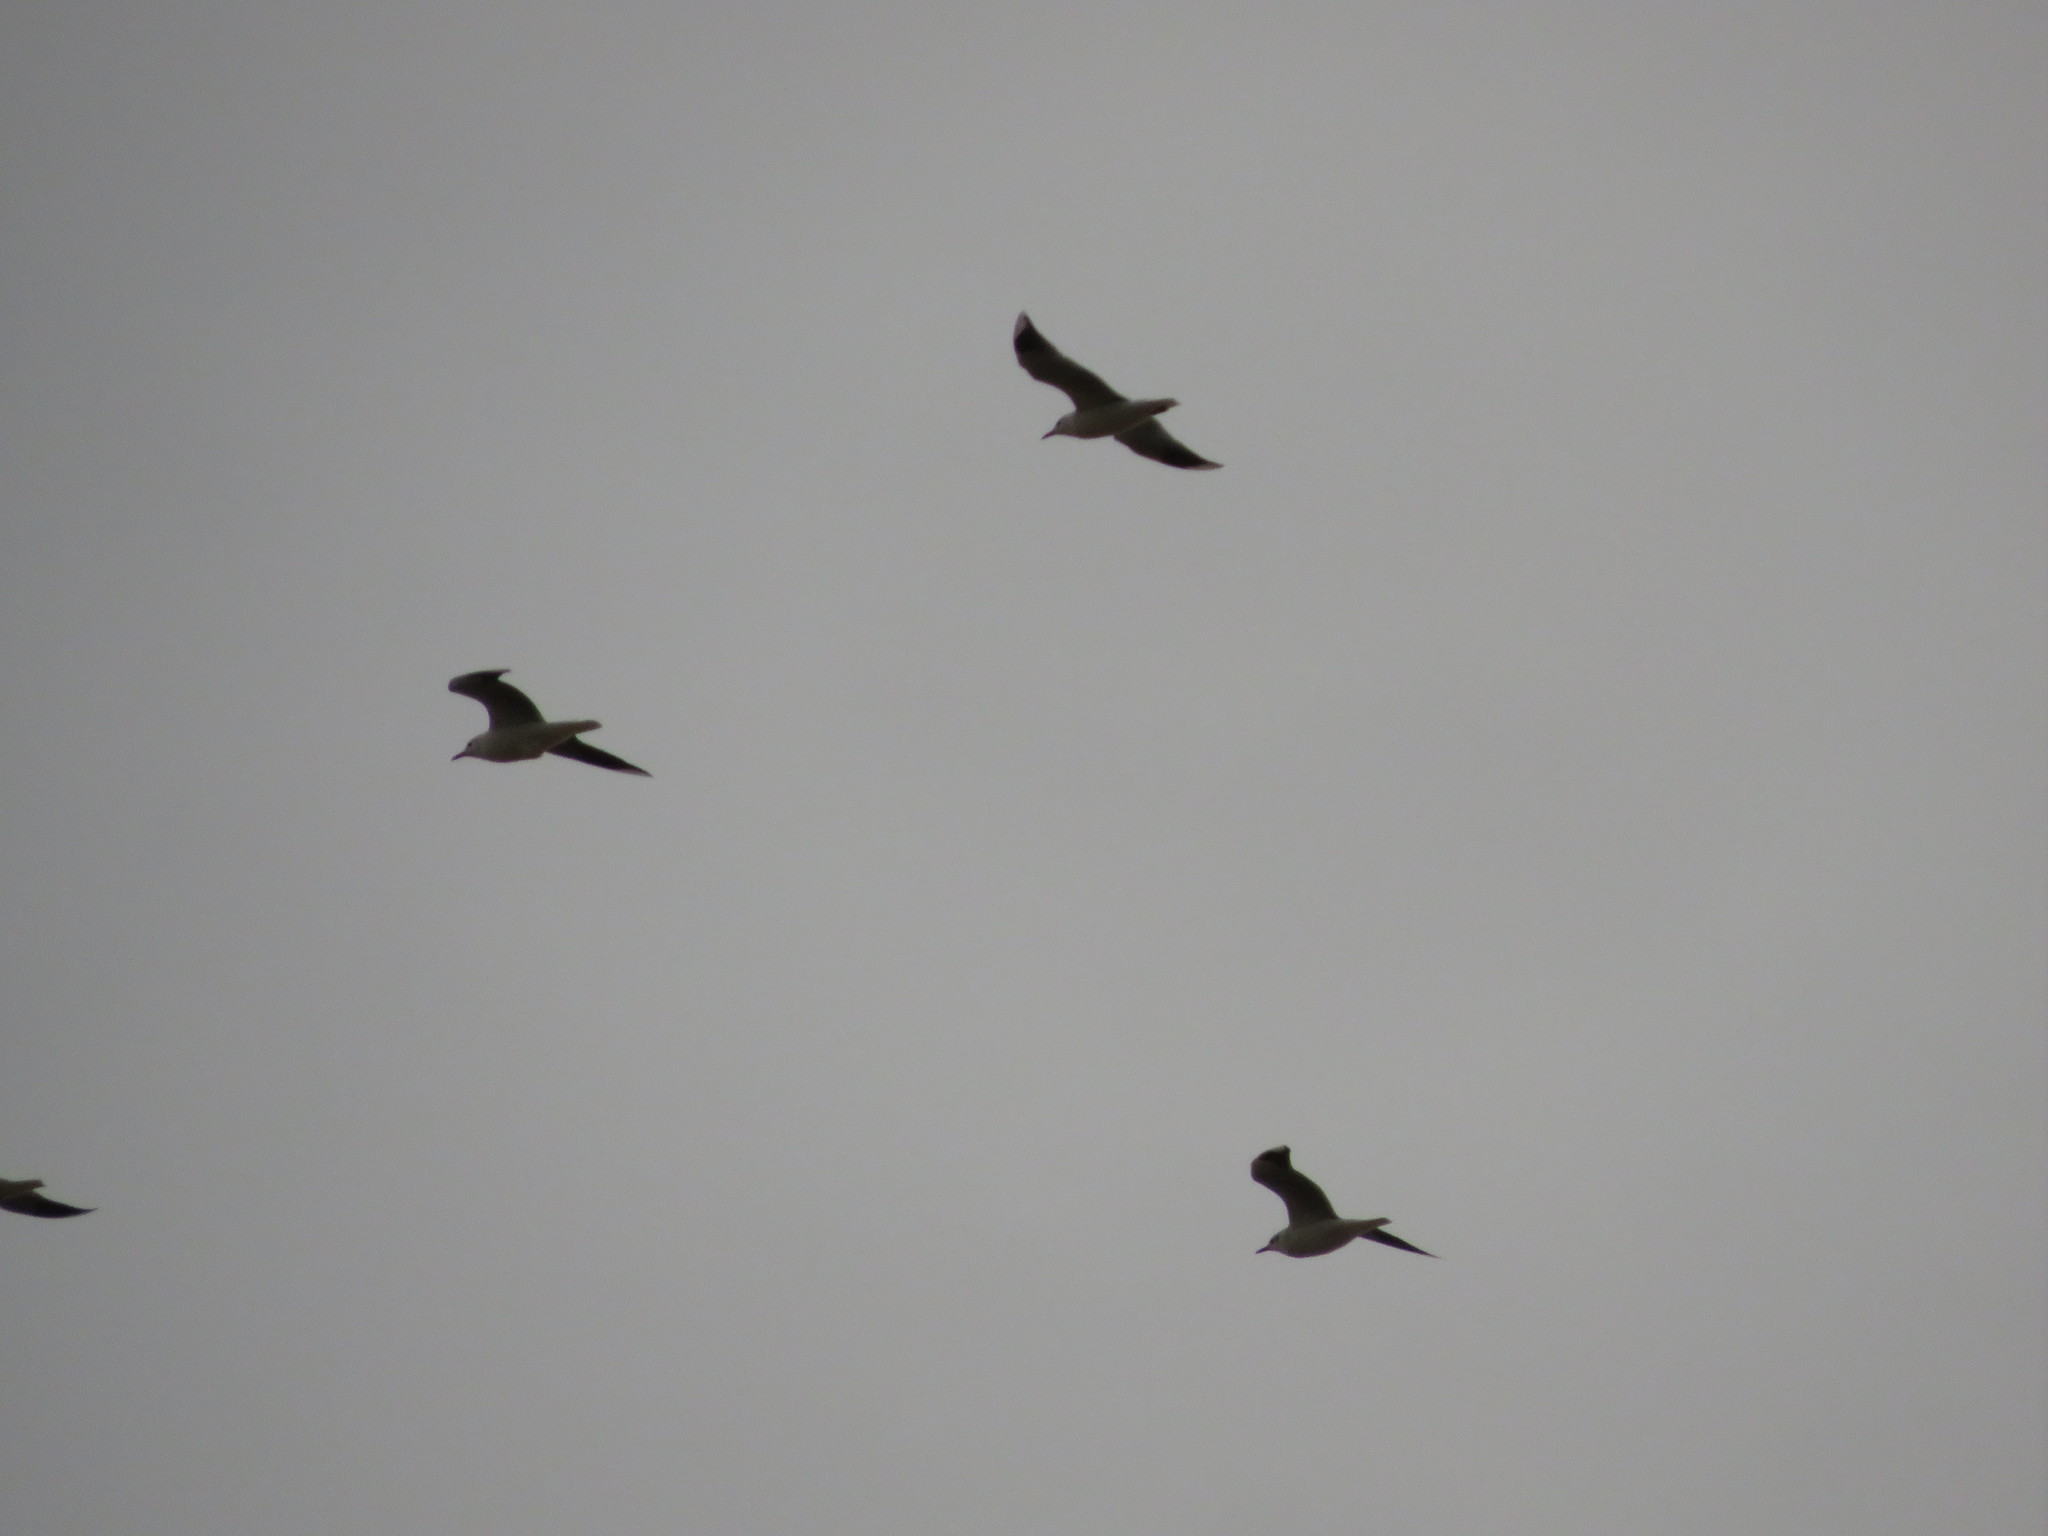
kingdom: Animalia
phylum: Chordata
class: Aves
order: Charadriiformes
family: Laridae
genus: Chroicocephalus
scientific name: Chroicocephalus maculipennis
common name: Brown-hooded gull
